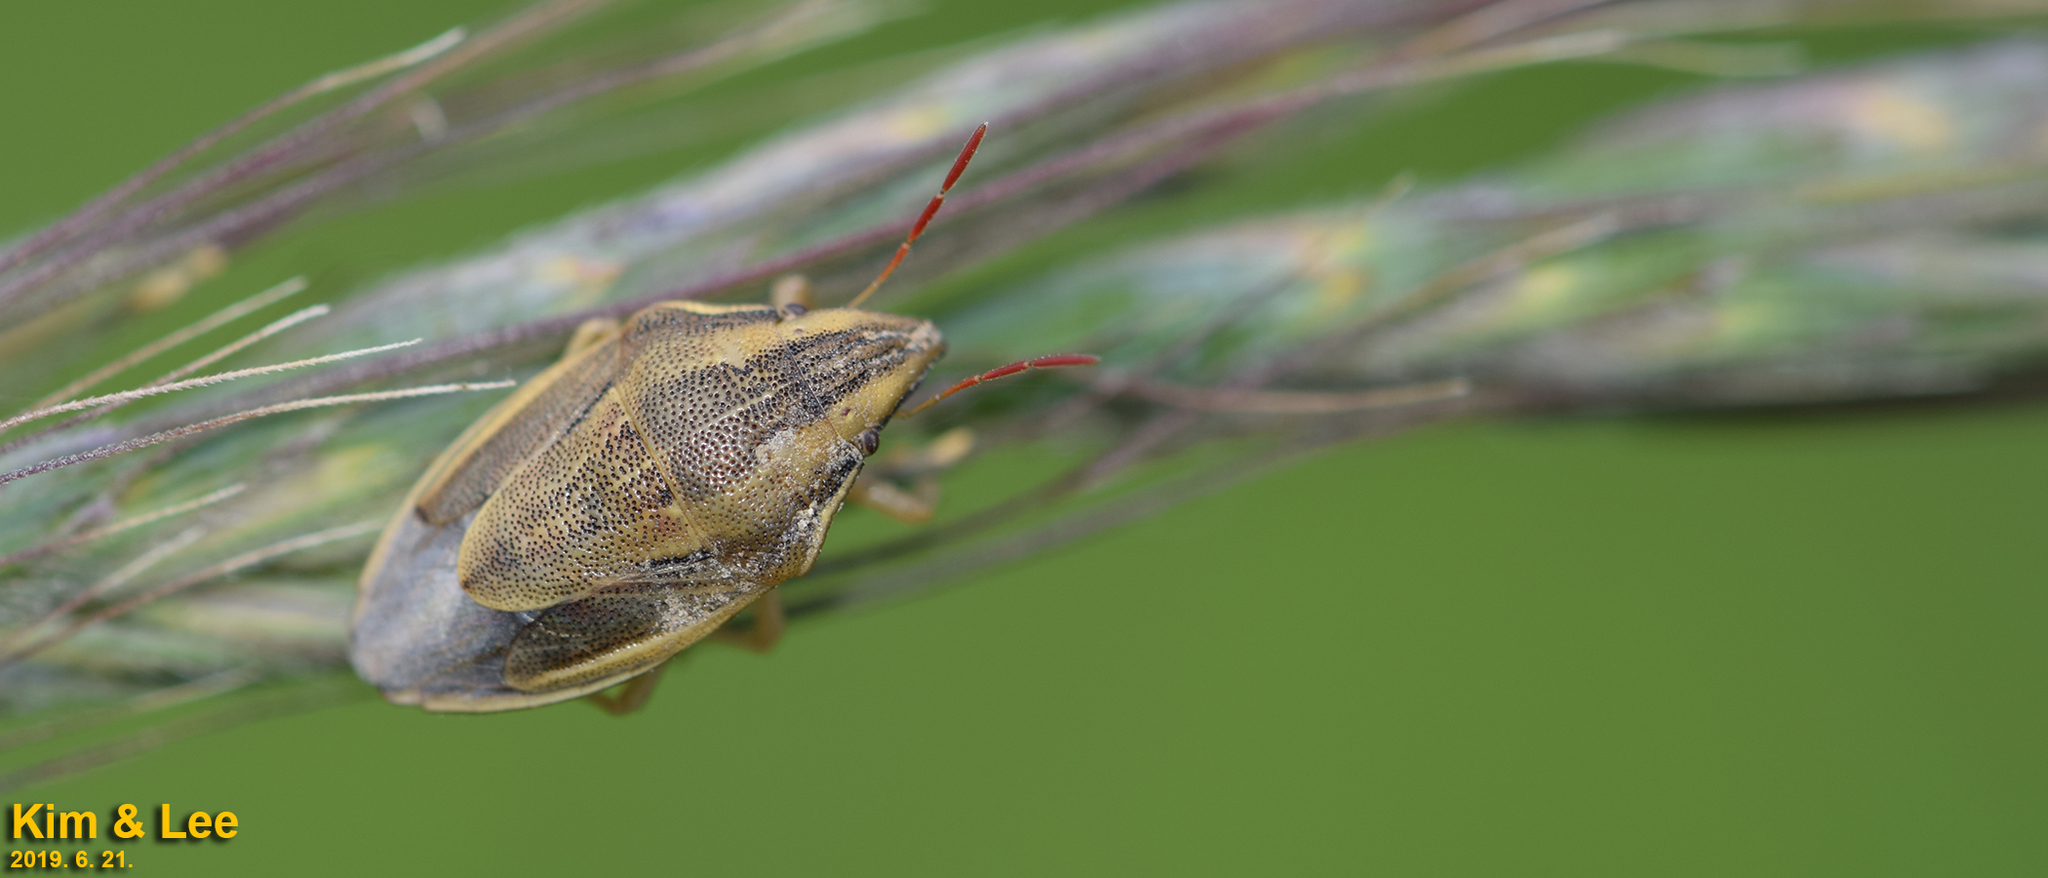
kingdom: Animalia
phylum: Arthropoda
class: Insecta
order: Hemiptera
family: Pentatomidae
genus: Aelia
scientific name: Aelia
